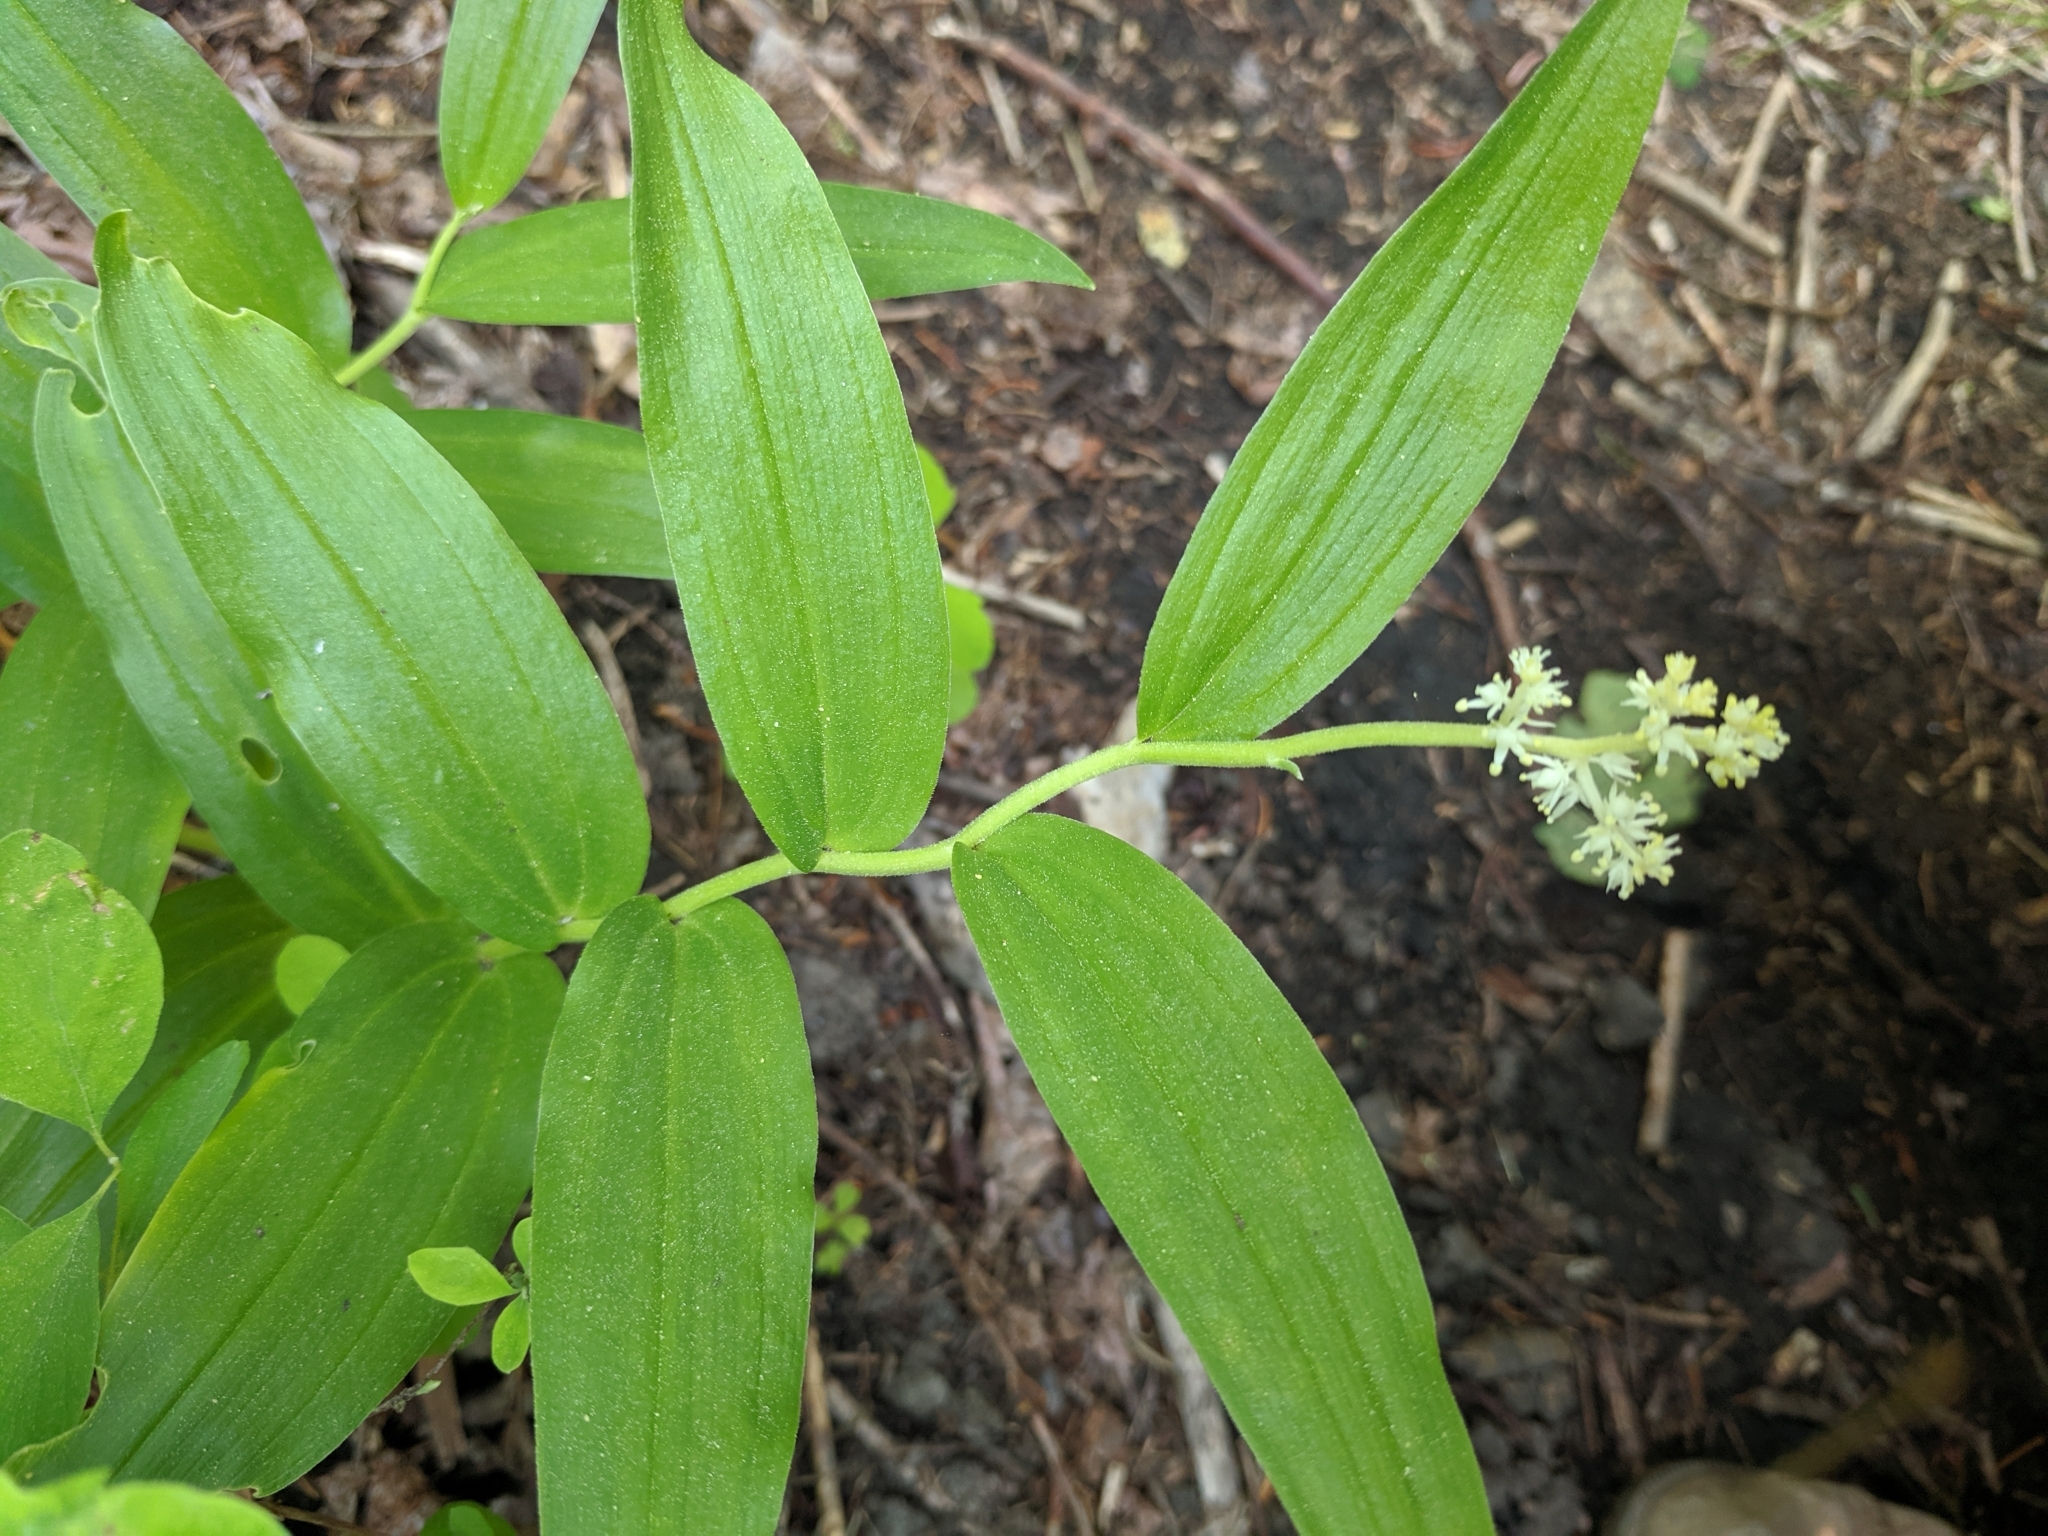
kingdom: Plantae
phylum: Tracheophyta
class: Liliopsida
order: Asparagales
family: Asparagaceae
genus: Maianthemum
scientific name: Maianthemum racemosum
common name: False spikenard
